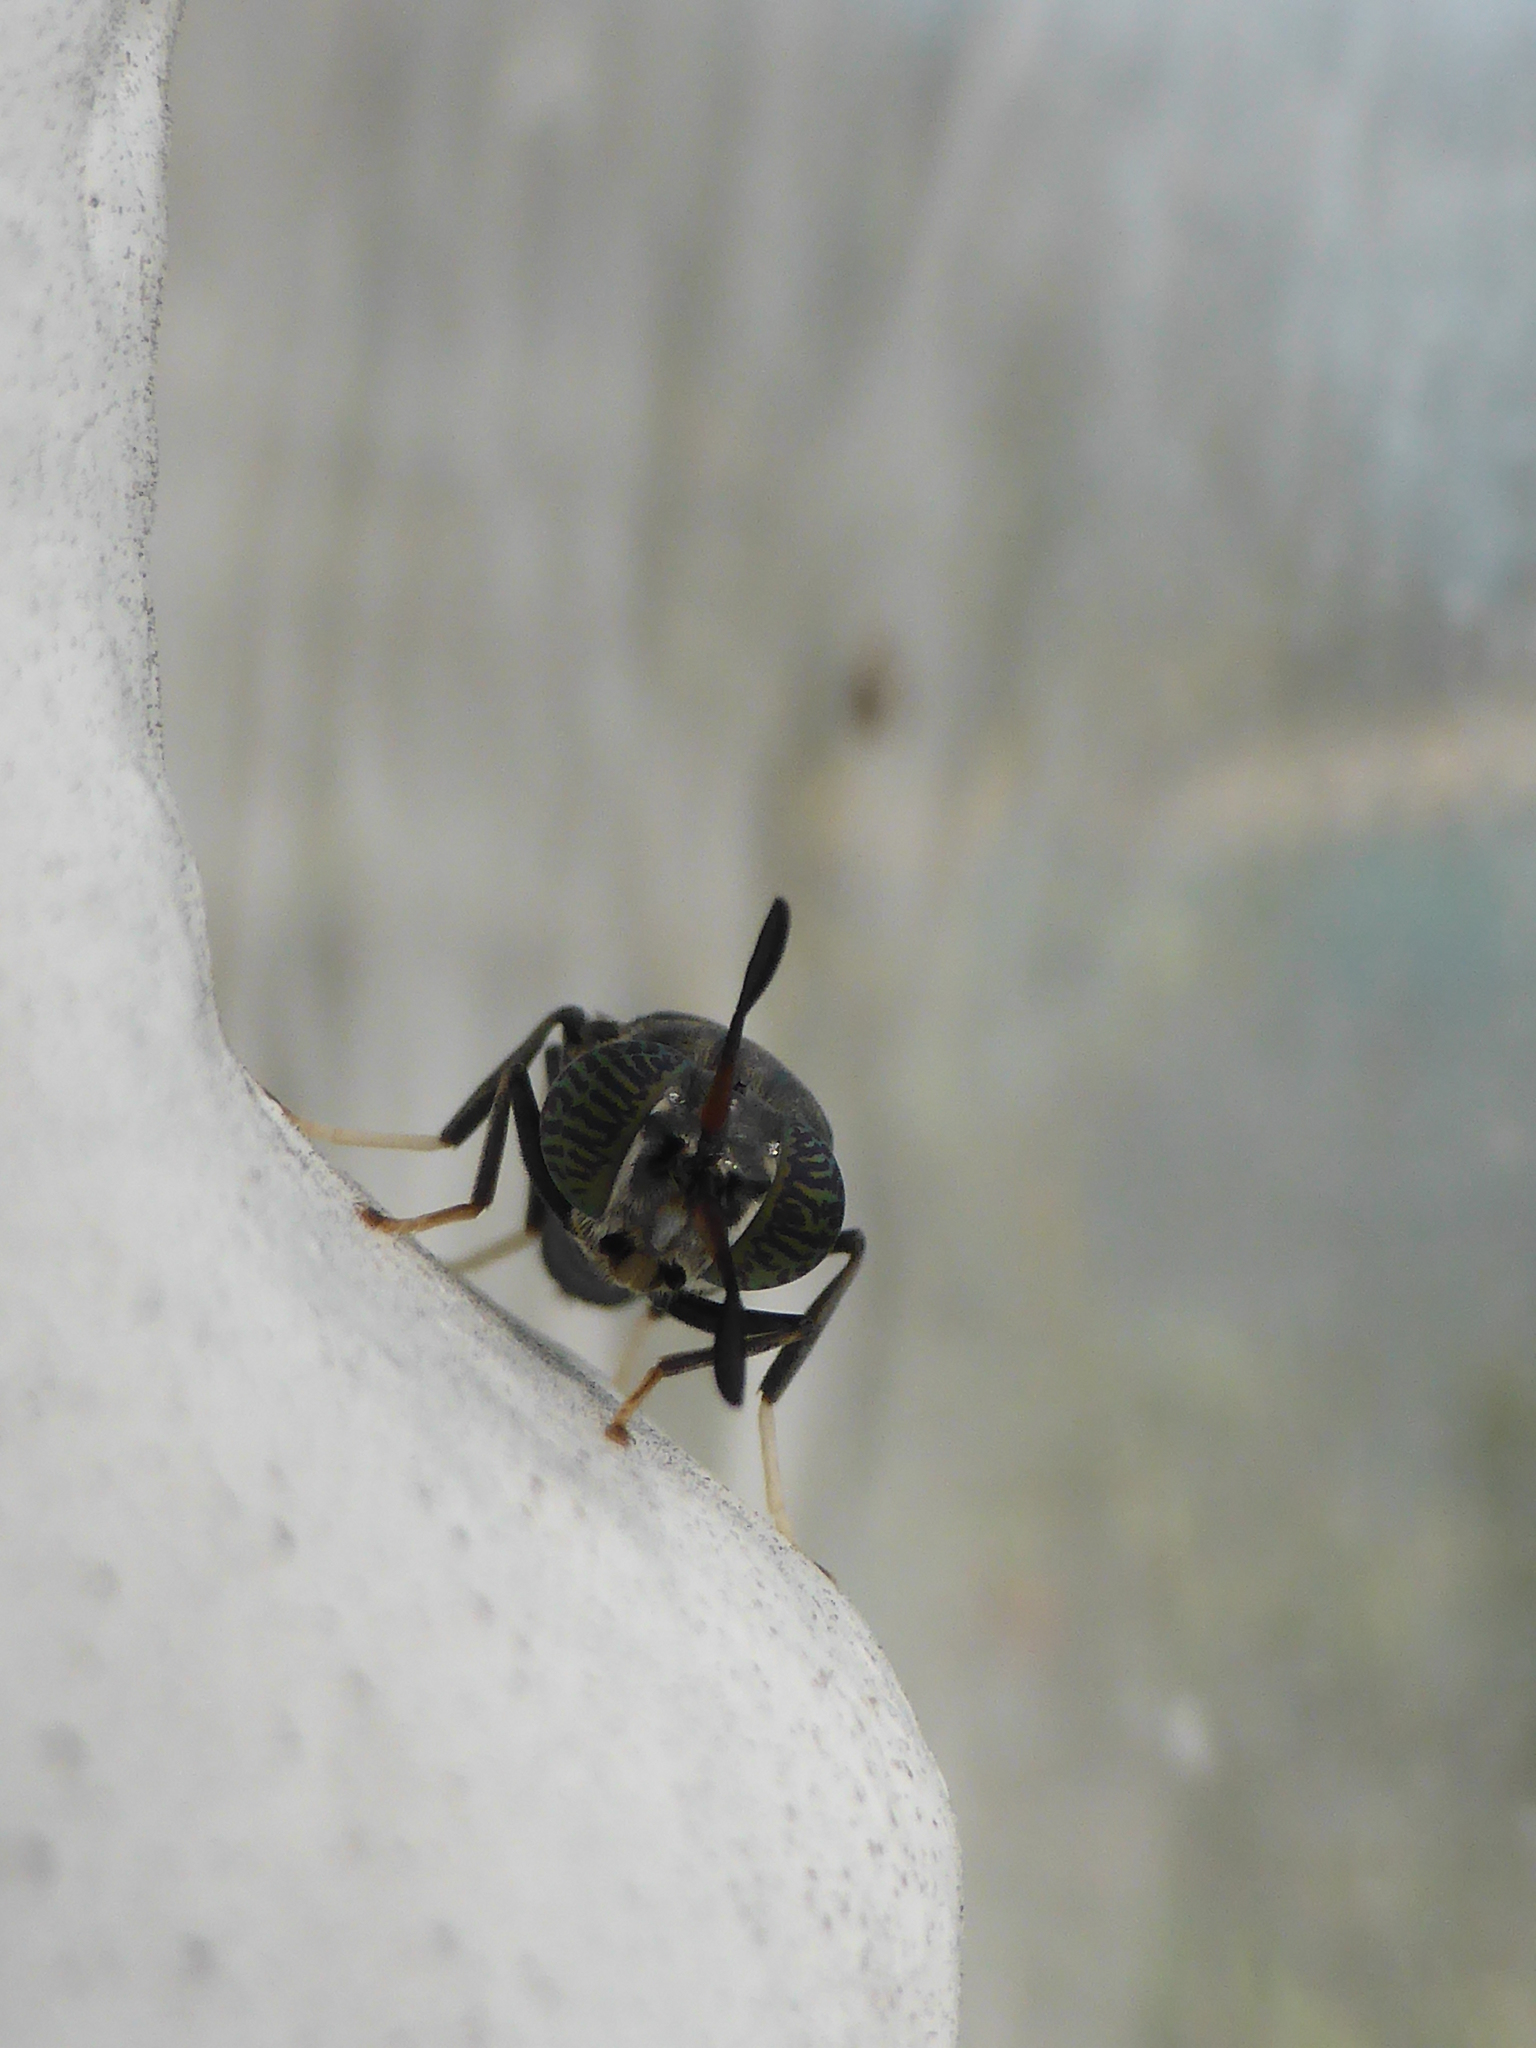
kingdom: Animalia
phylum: Arthropoda
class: Insecta
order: Diptera
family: Stratiomyidae
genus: Hermetia
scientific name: Hermetia illucens
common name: Black soldier fly
